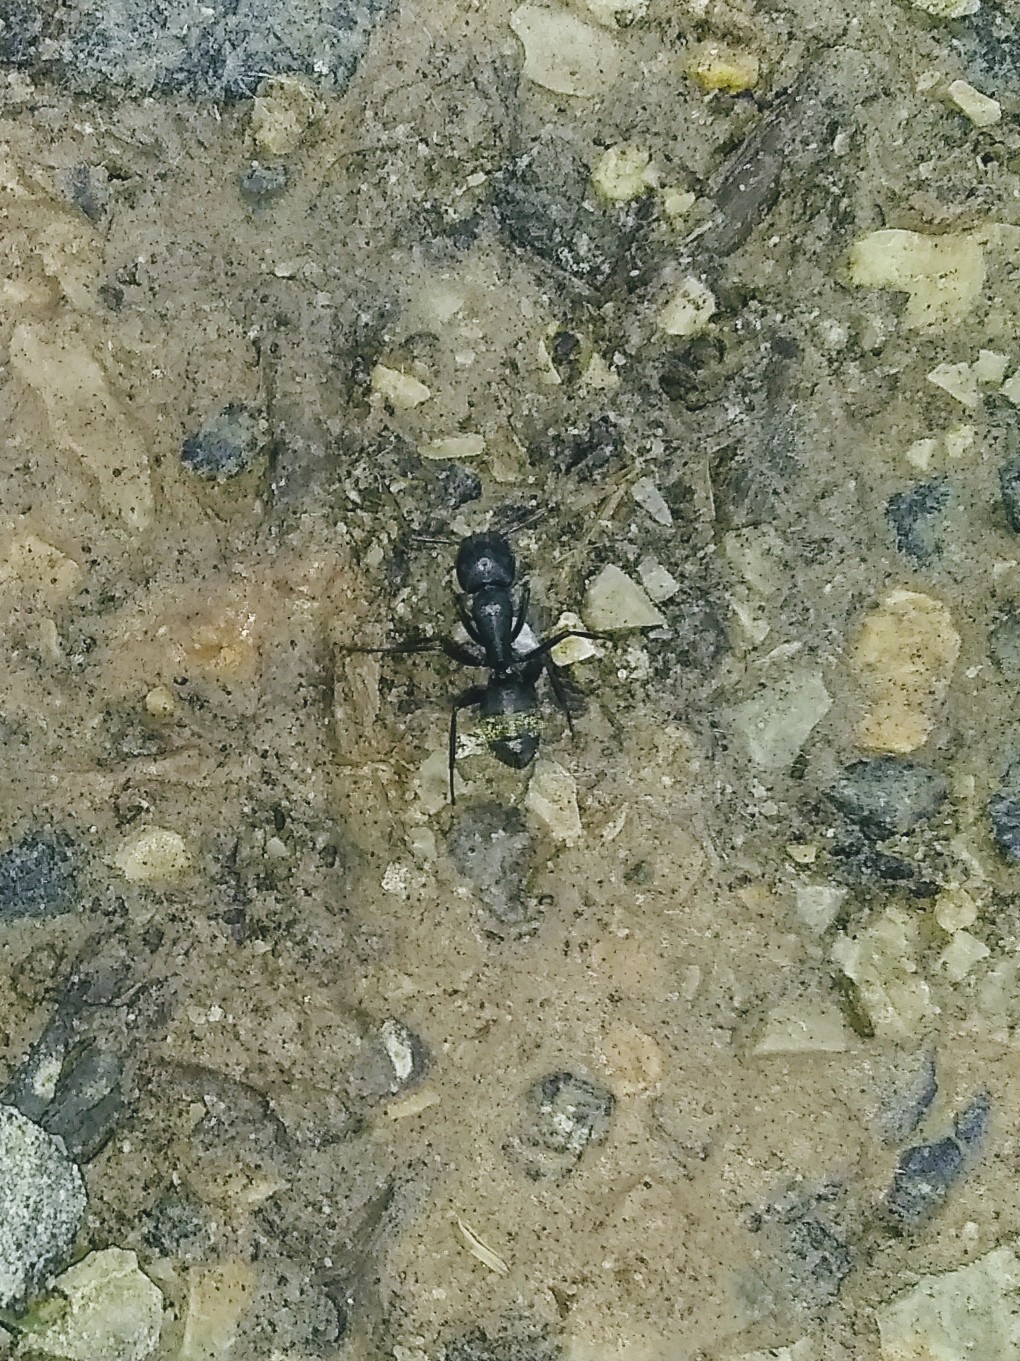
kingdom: Animalia
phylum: Arthropoda
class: Insecta
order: Hymenoptera
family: Formicidae
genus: Camponotus
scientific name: Camponotus pennsylvanicus
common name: Black carpenter ant
